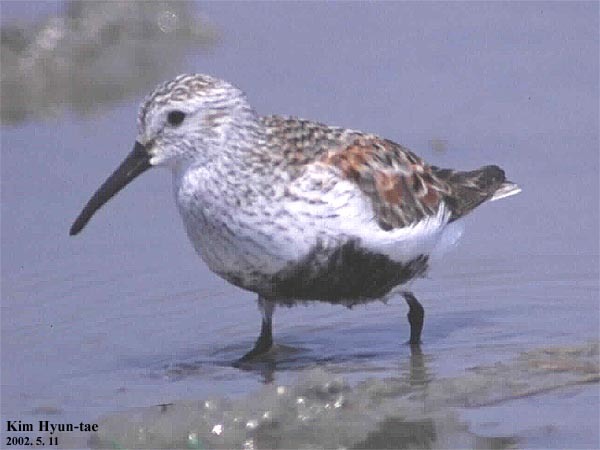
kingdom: Animalia
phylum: Chordata
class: Aves
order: Charadriiformes
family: Scolopacidae
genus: Calidris
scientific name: Calidris alpina
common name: Dunlin
